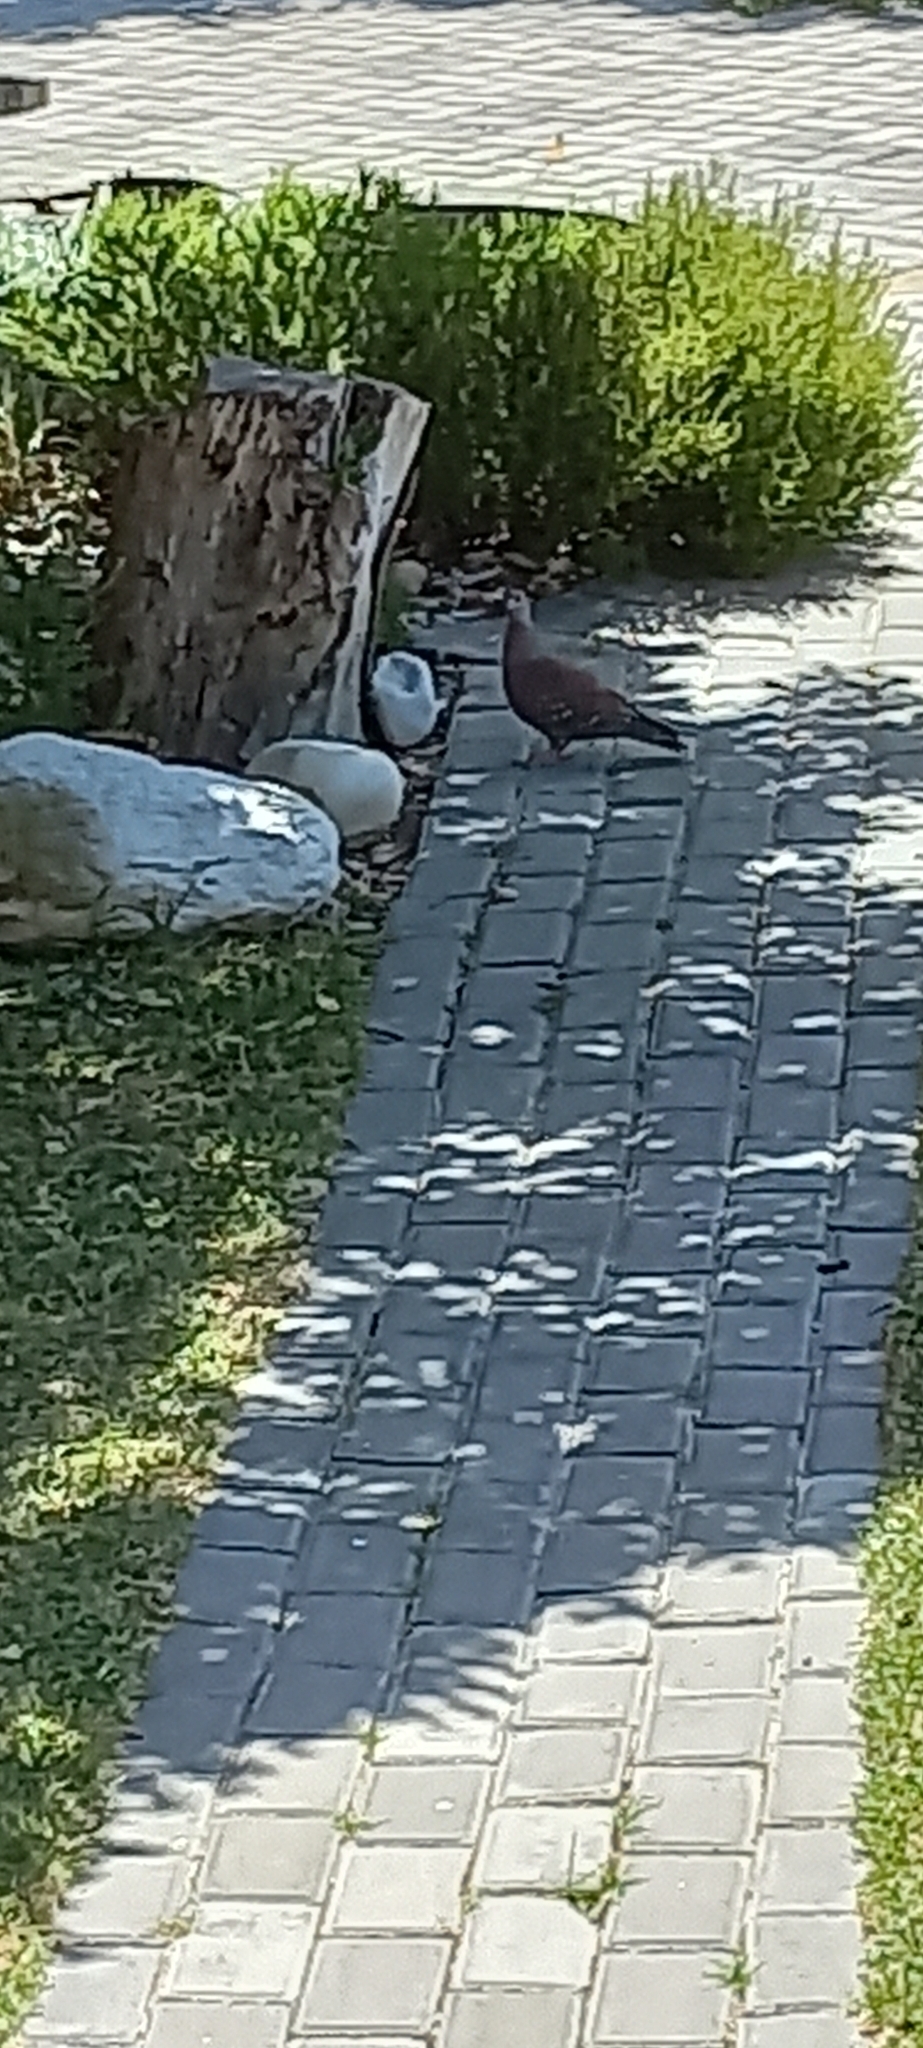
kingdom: Animalia
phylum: Chordata
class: Aves
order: Columbiformes
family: Columbidae
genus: Columba
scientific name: Columba guinea
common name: Speckled pigeon
